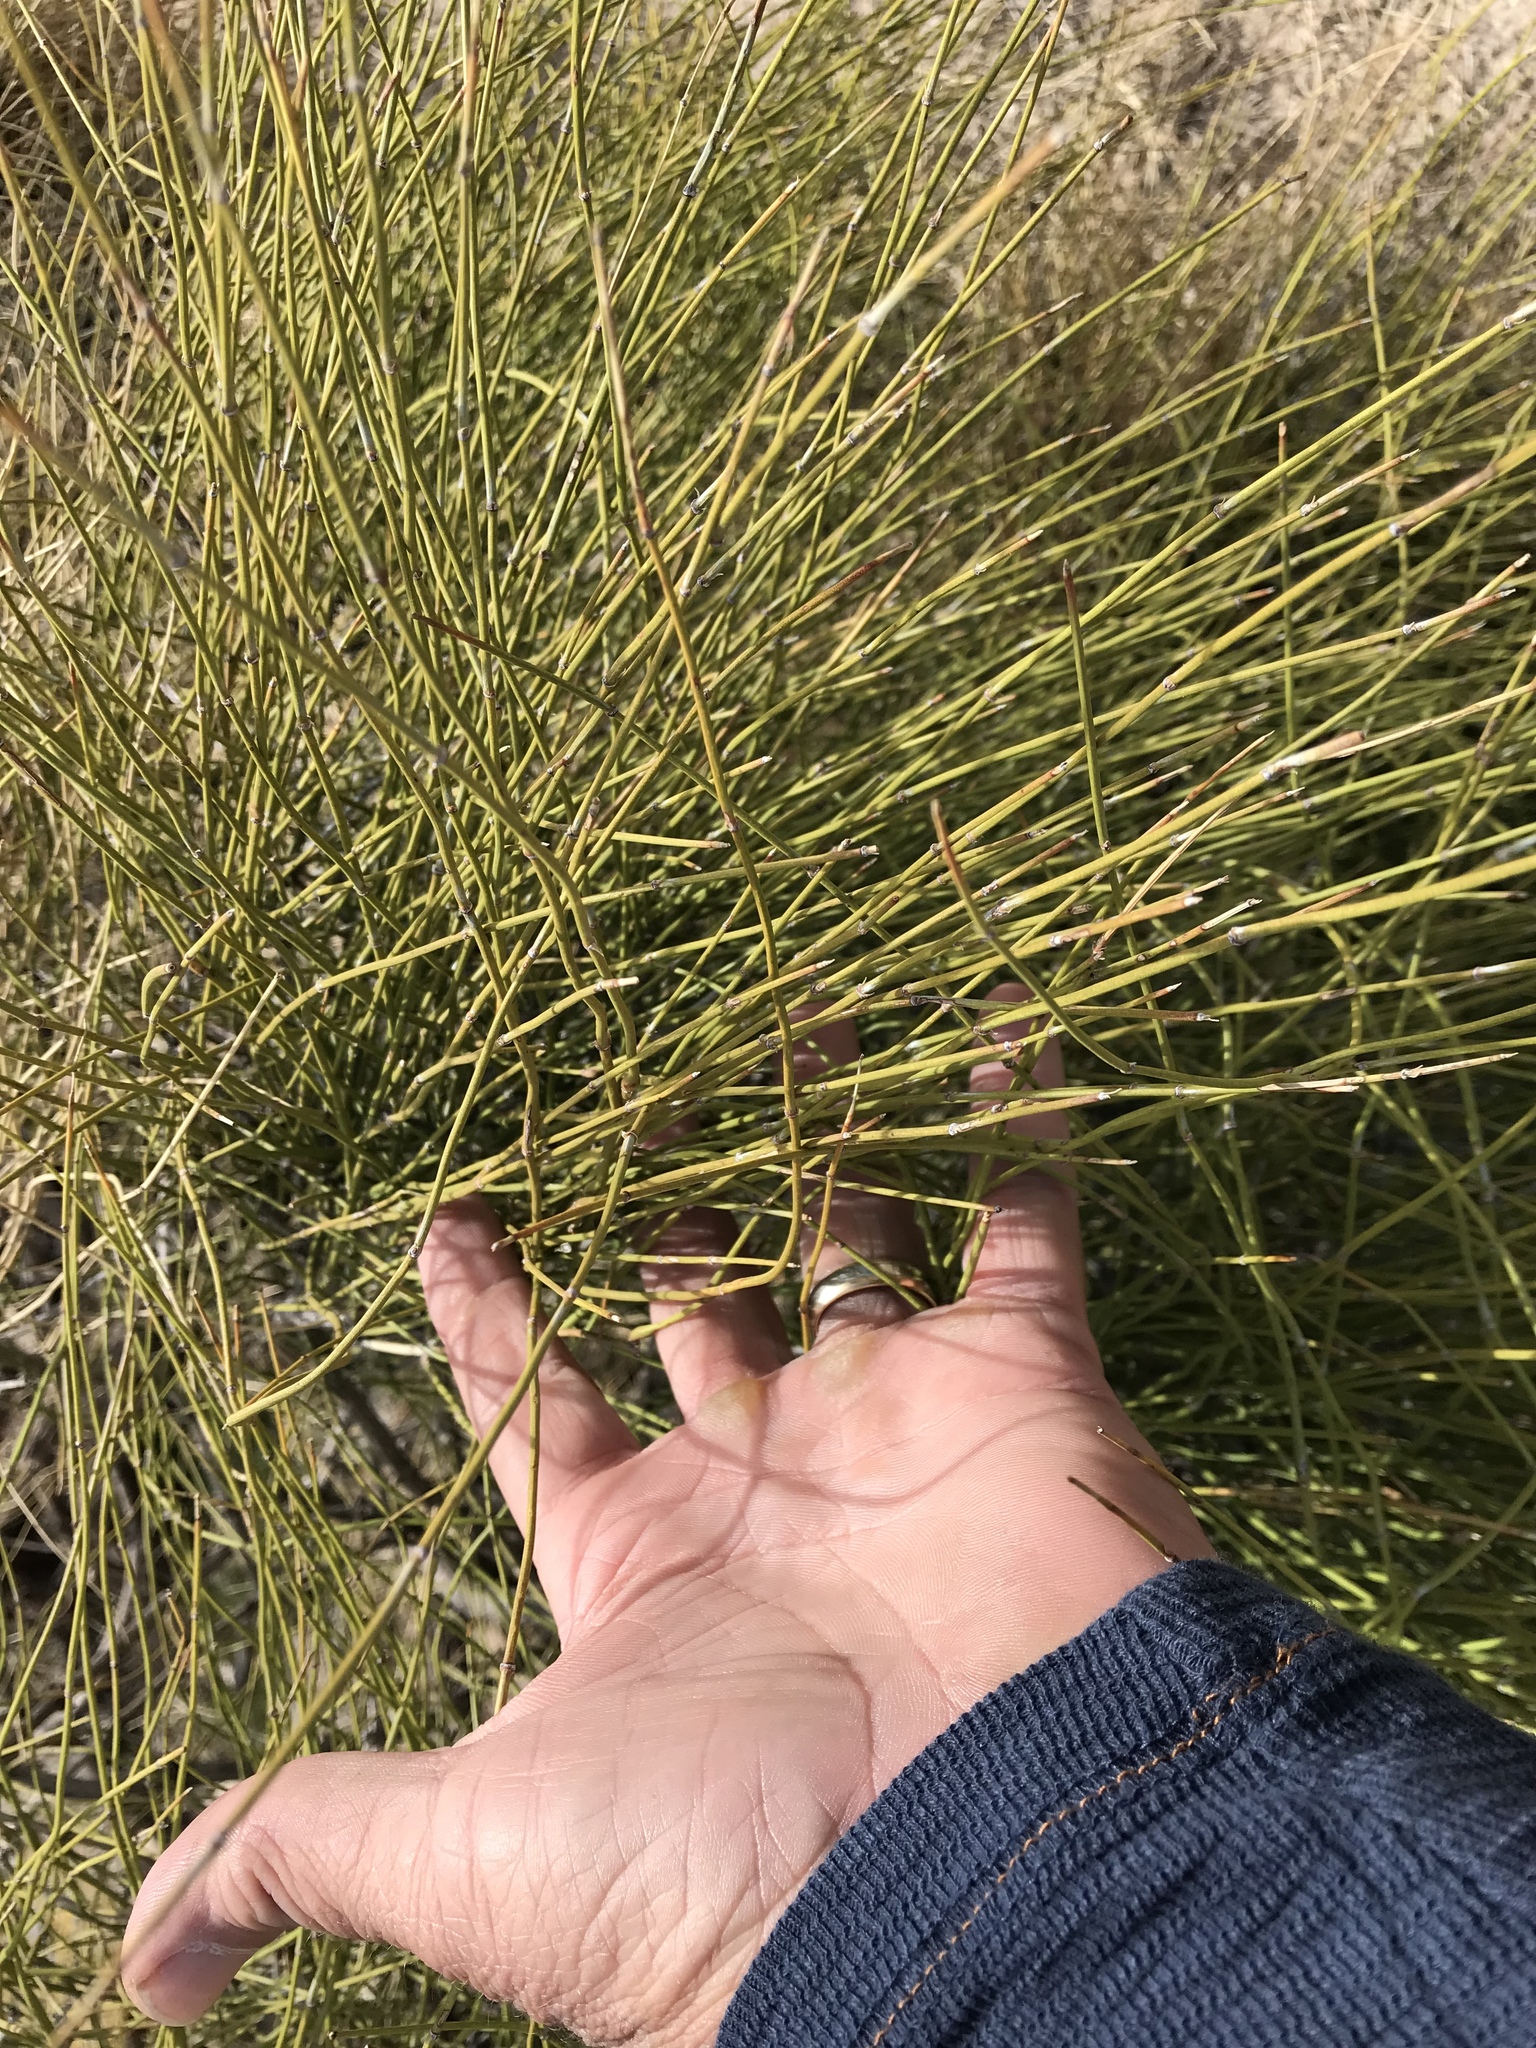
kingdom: Plantae
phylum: Tracheophyta
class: Gnetopsida
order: Ephedrales
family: Ephedraceae
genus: Ephedra
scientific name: Ephedra viridis
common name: Green ephedra
